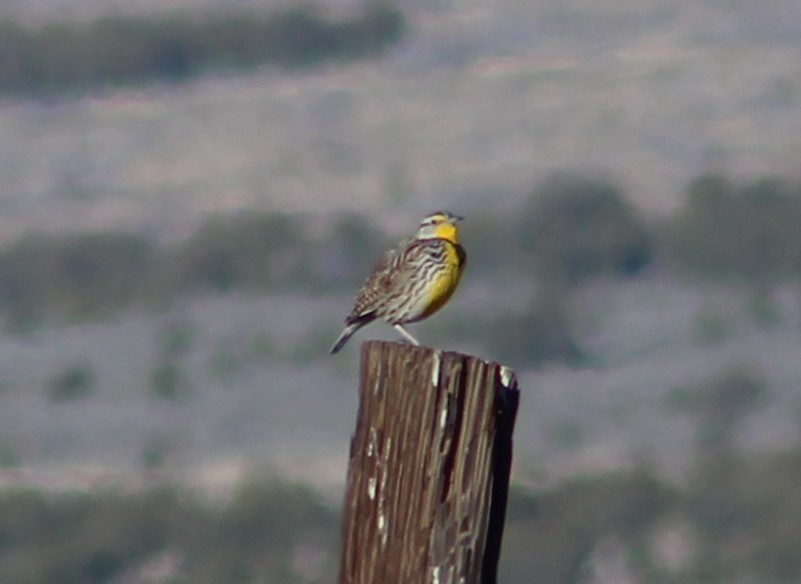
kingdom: Animalia
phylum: Chordata
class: Aves
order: Passeriformes
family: Icteridae
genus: Sturnella
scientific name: Sturnella neglecta
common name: Western meadowlark
